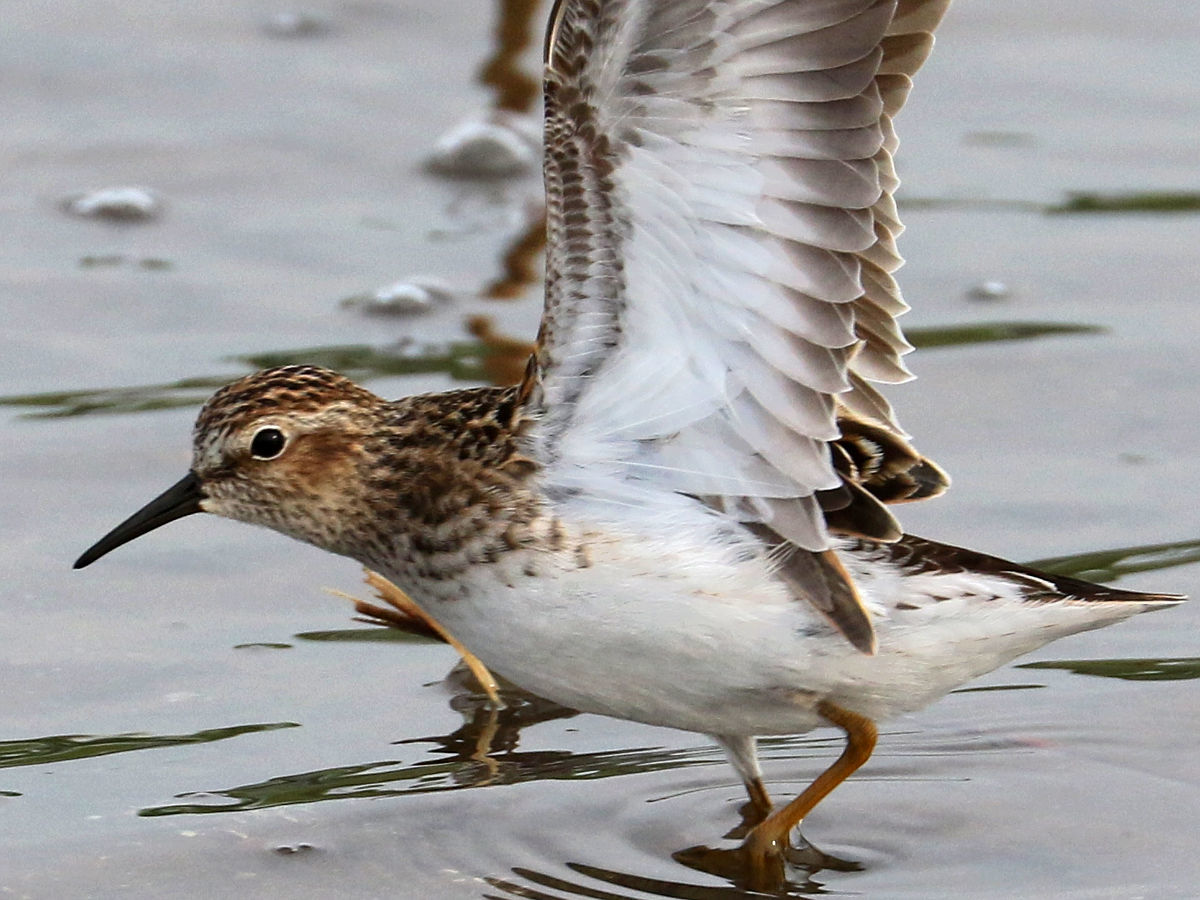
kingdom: Animalia
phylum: Chordata
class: Aves
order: Charadriiformes
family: Scolopacidae
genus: Calidris
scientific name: Calidris minutilla
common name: Least sandpiper
